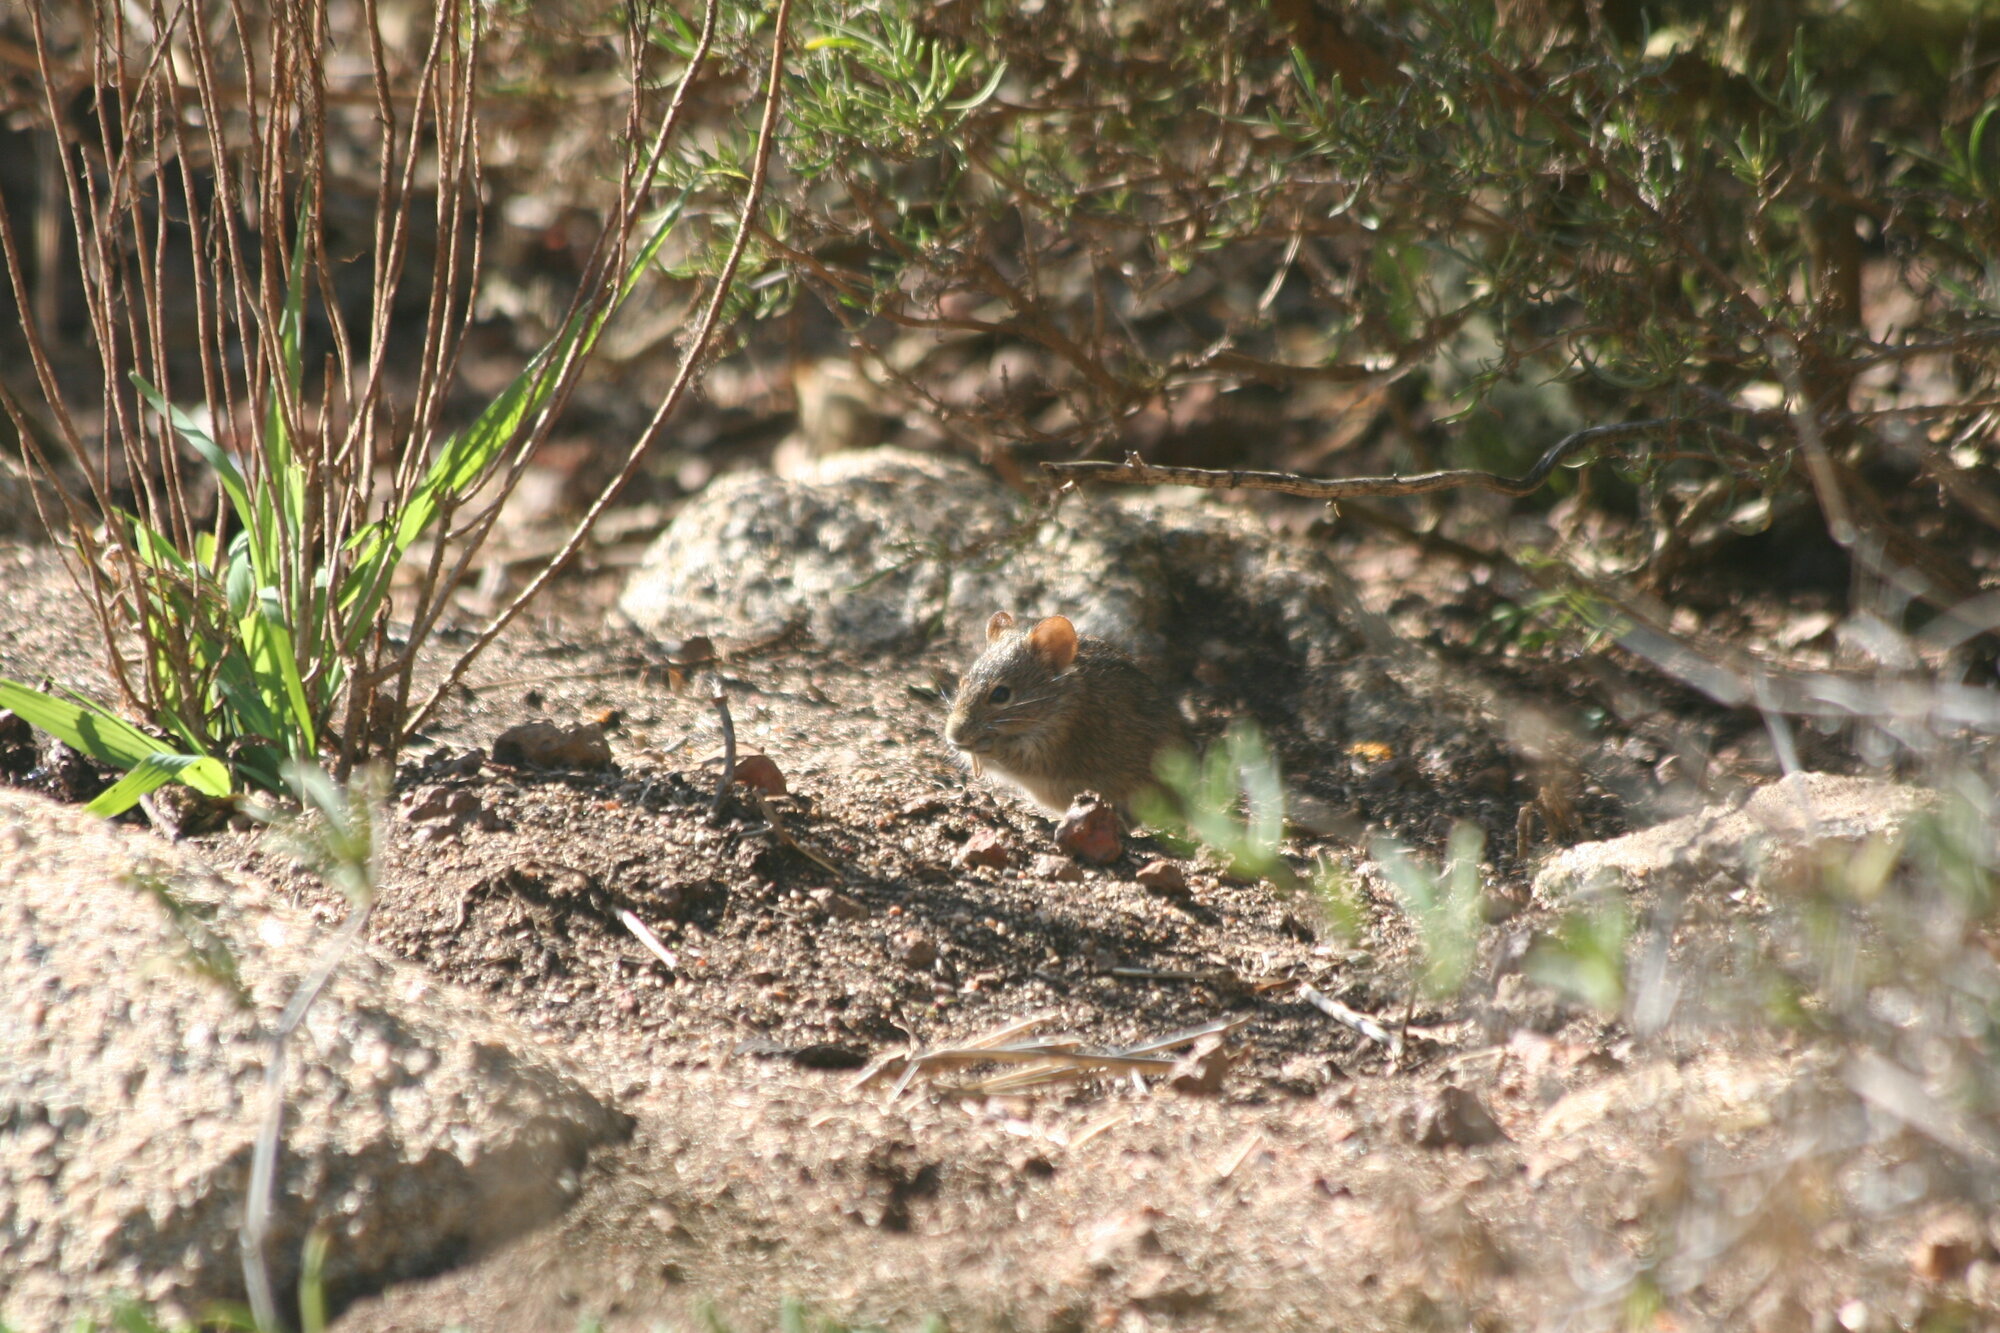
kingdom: Animalia
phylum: Chordata
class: Mammalia
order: Rodentia
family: Muridae
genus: Rhabdomys
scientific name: Rhabdomys pumilio
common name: Xeric four-striped grass rat
